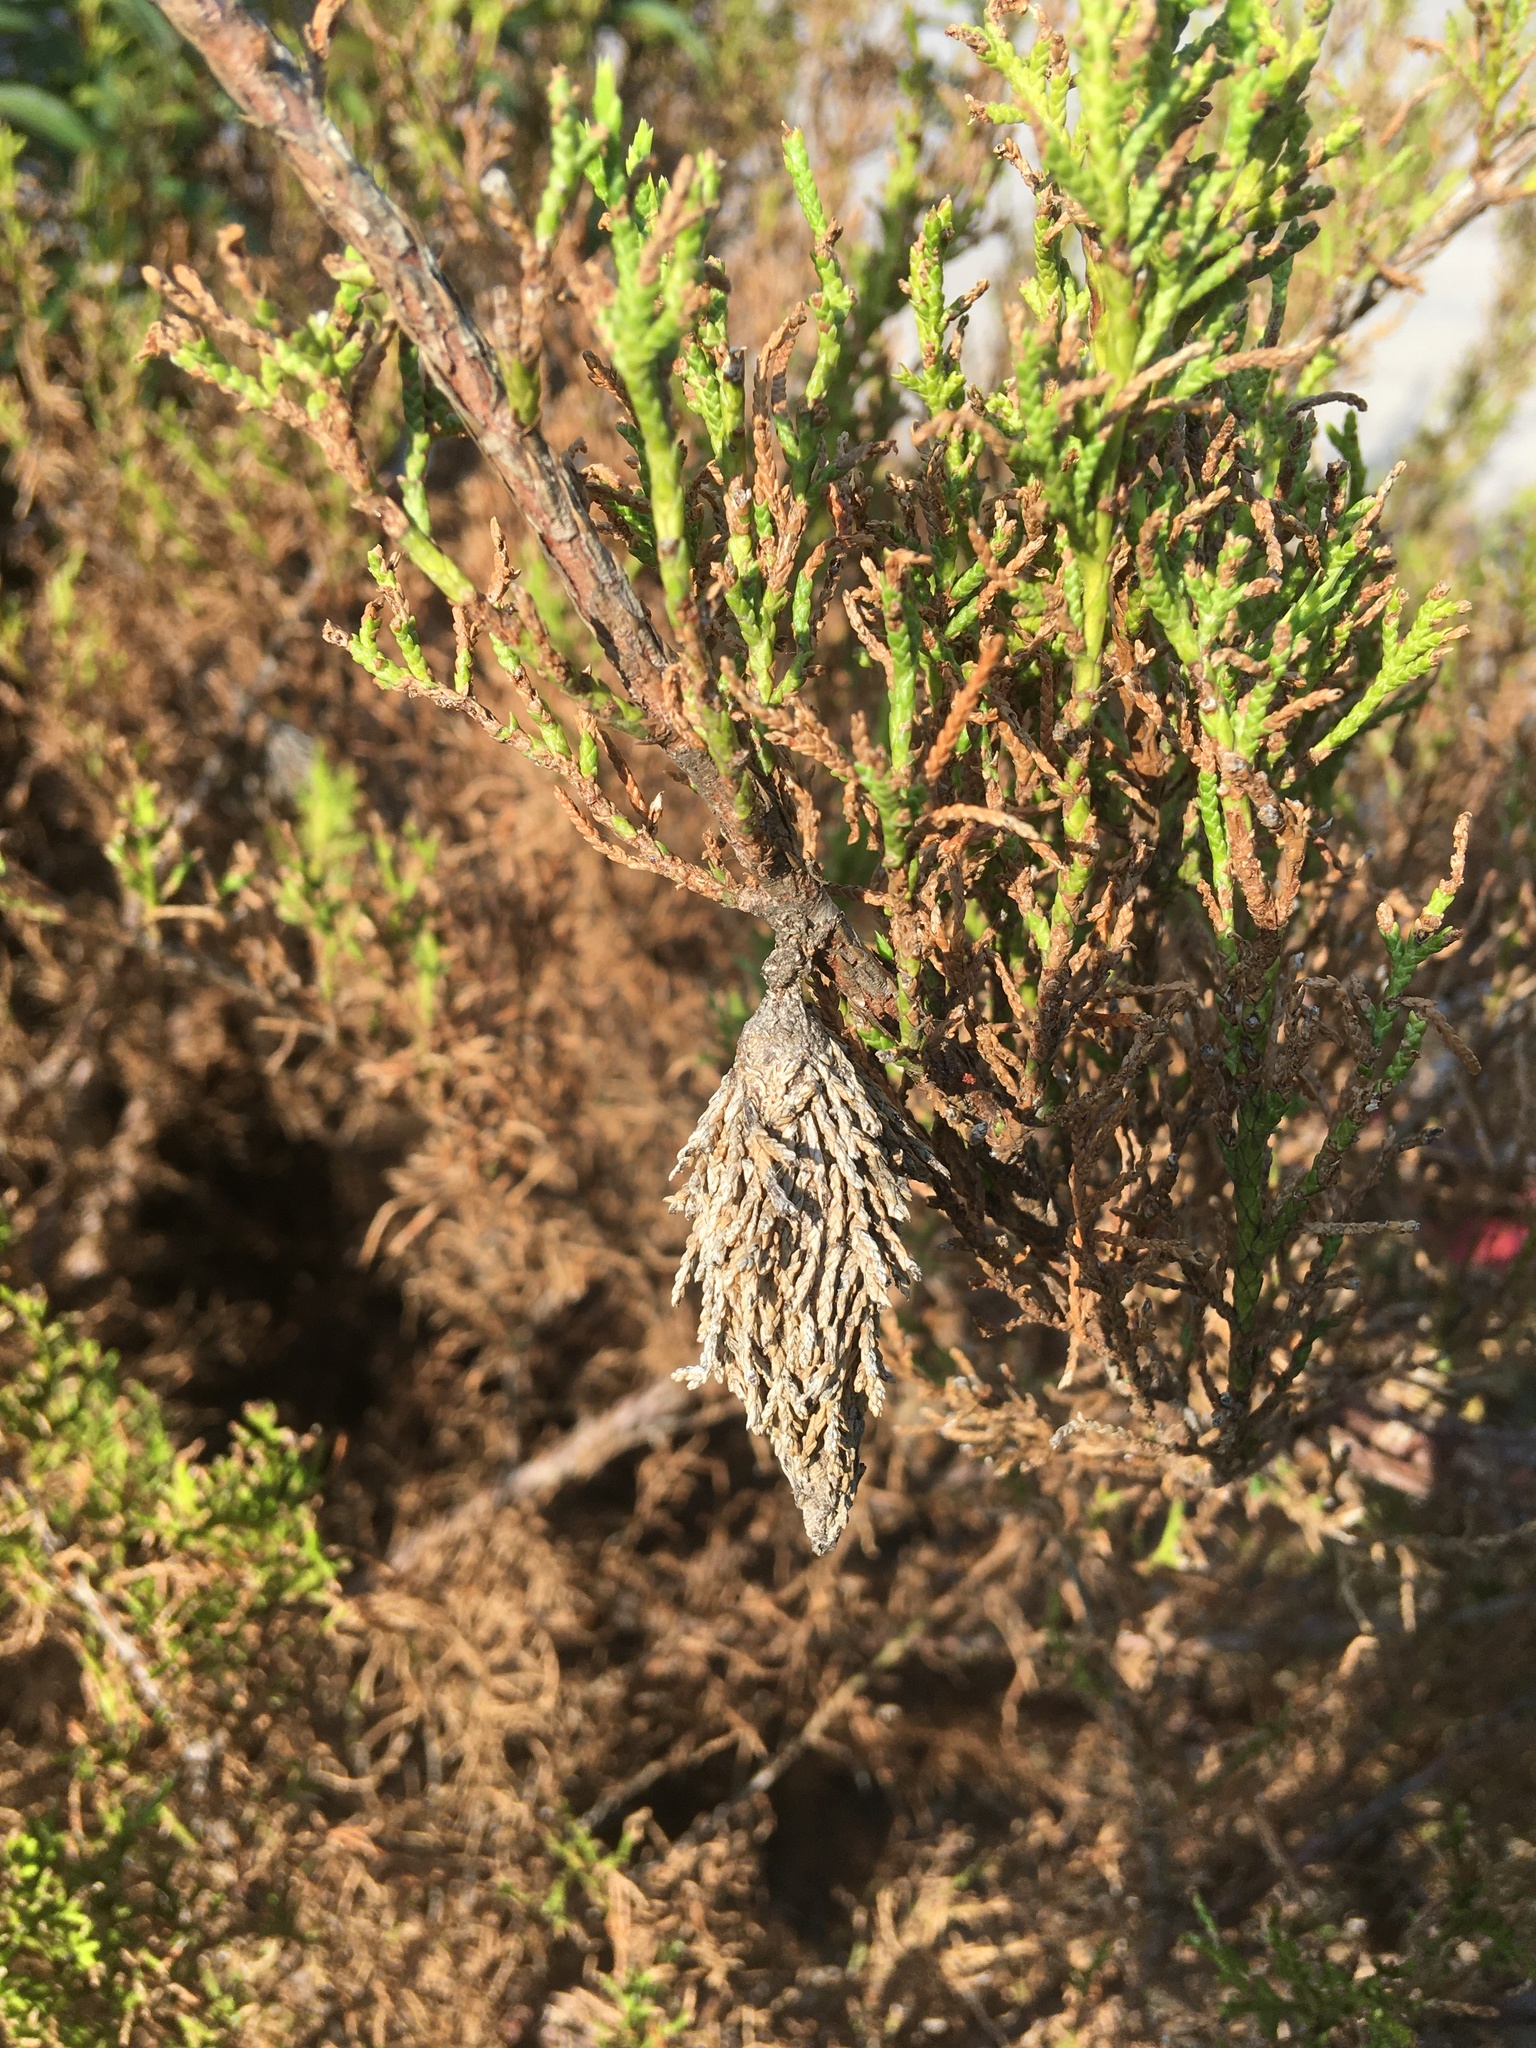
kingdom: Animalia
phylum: Arthropoda
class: Insecta
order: Lepidoptera
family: Psychidae
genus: Thyridopteryx
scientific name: Thyridopteryx ephemeraeformis
